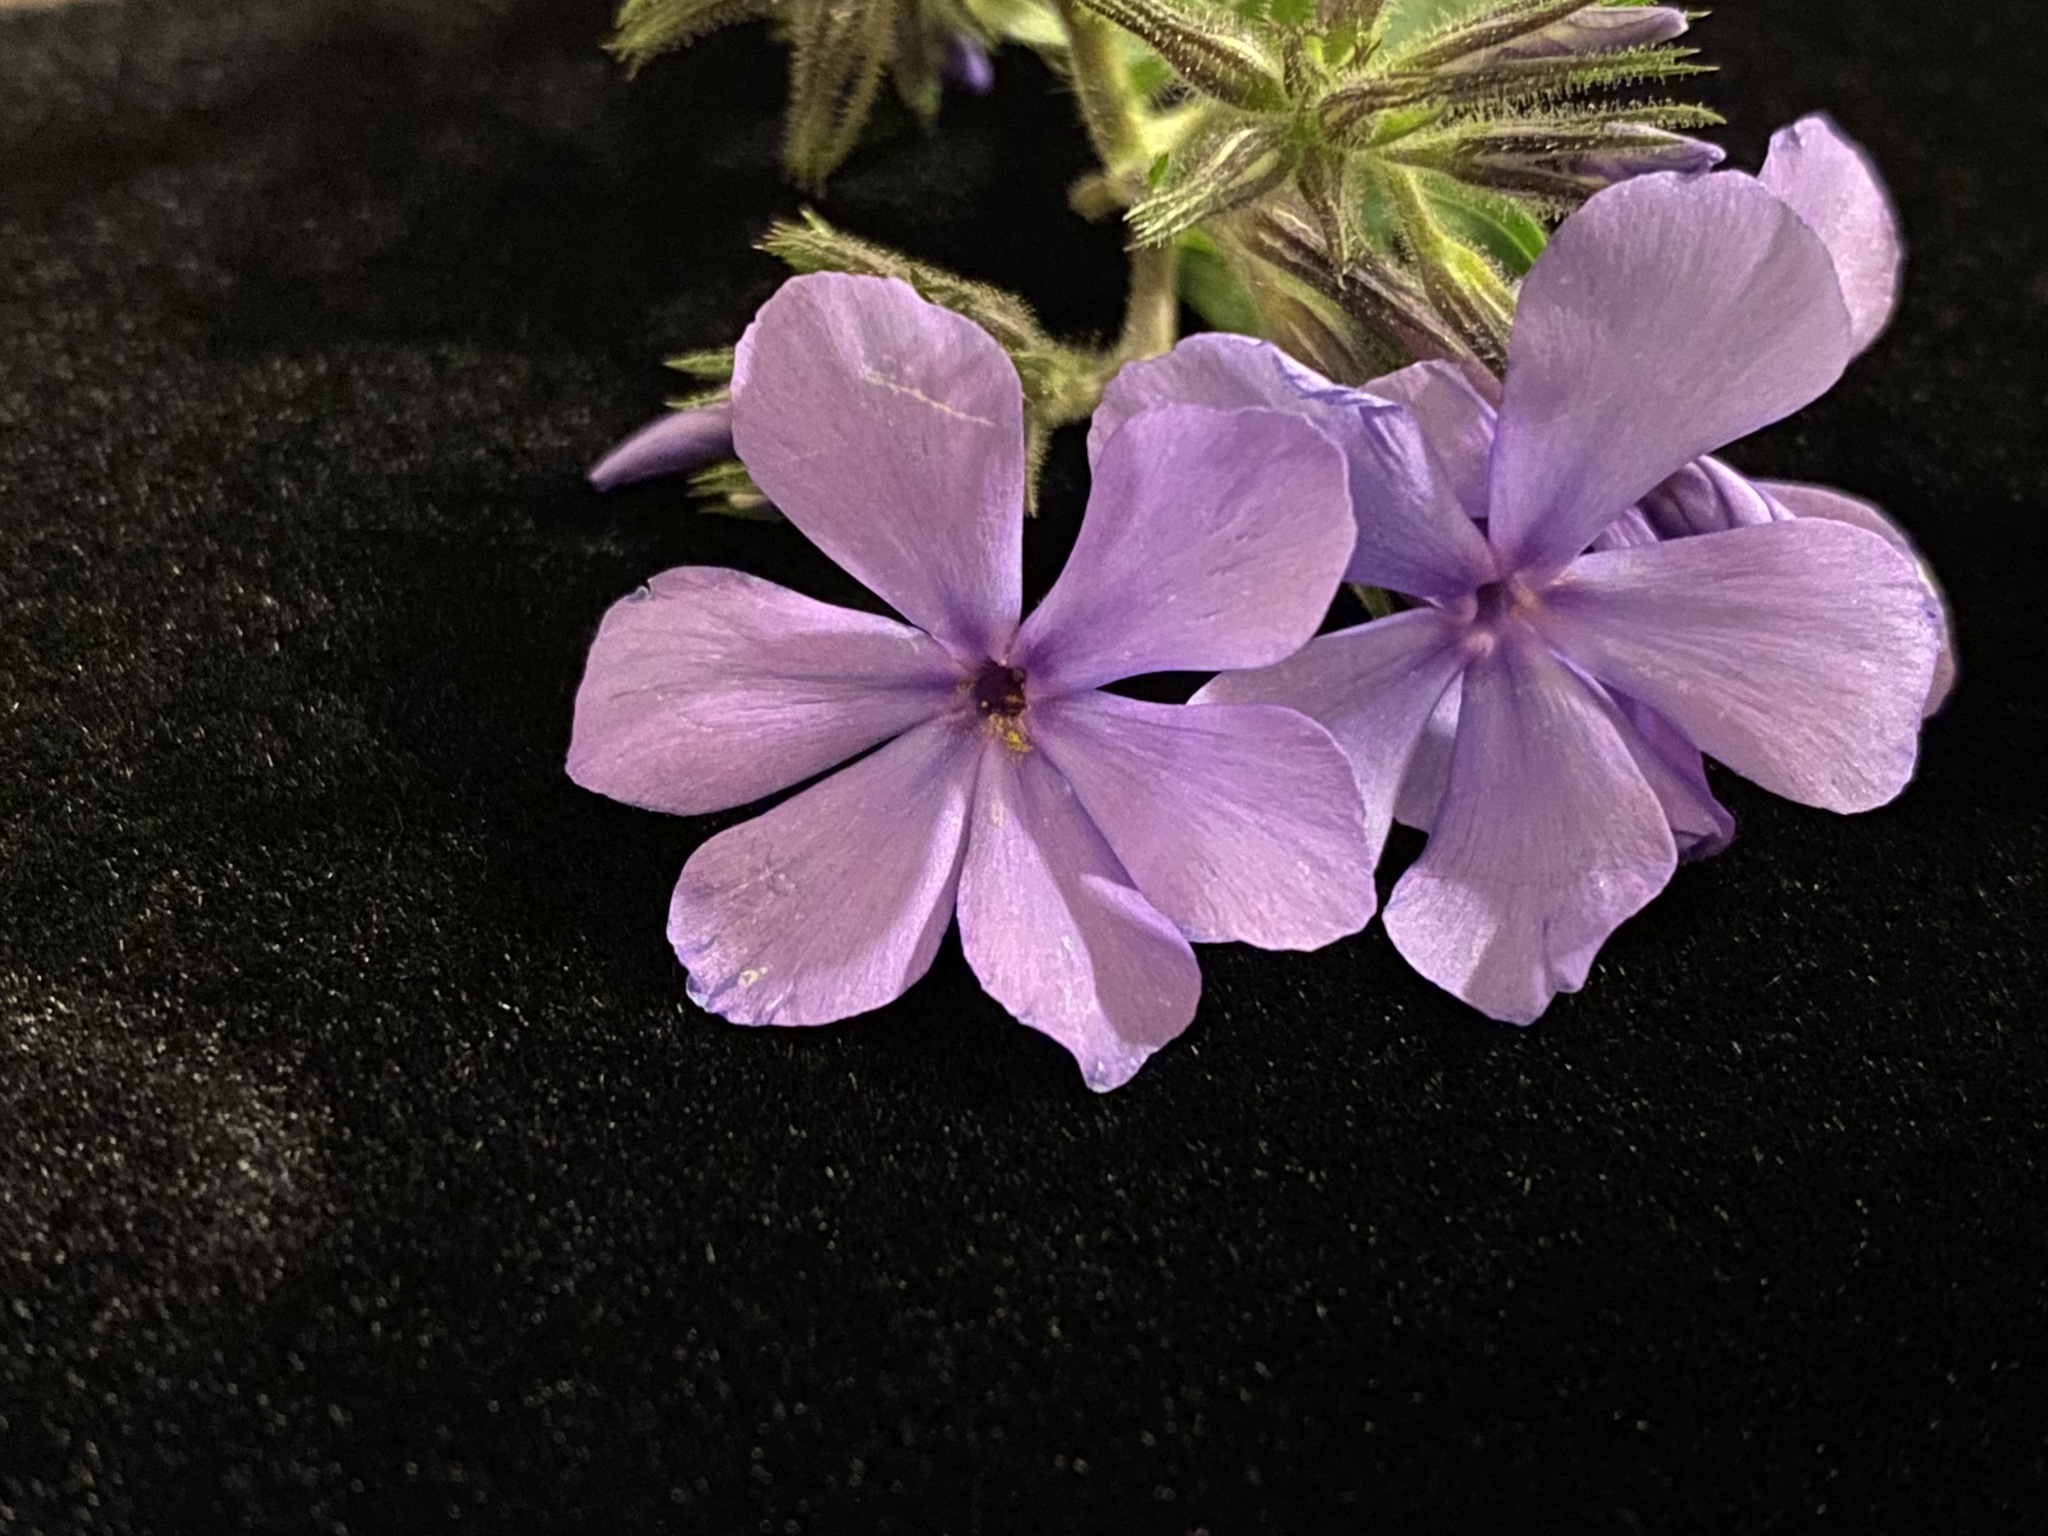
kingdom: Plantae
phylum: Tracheophyta
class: Magnoliopsida
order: Ericales
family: Polemoniaceae
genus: Phlox
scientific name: Phlox divaricata
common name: Blue phlox
